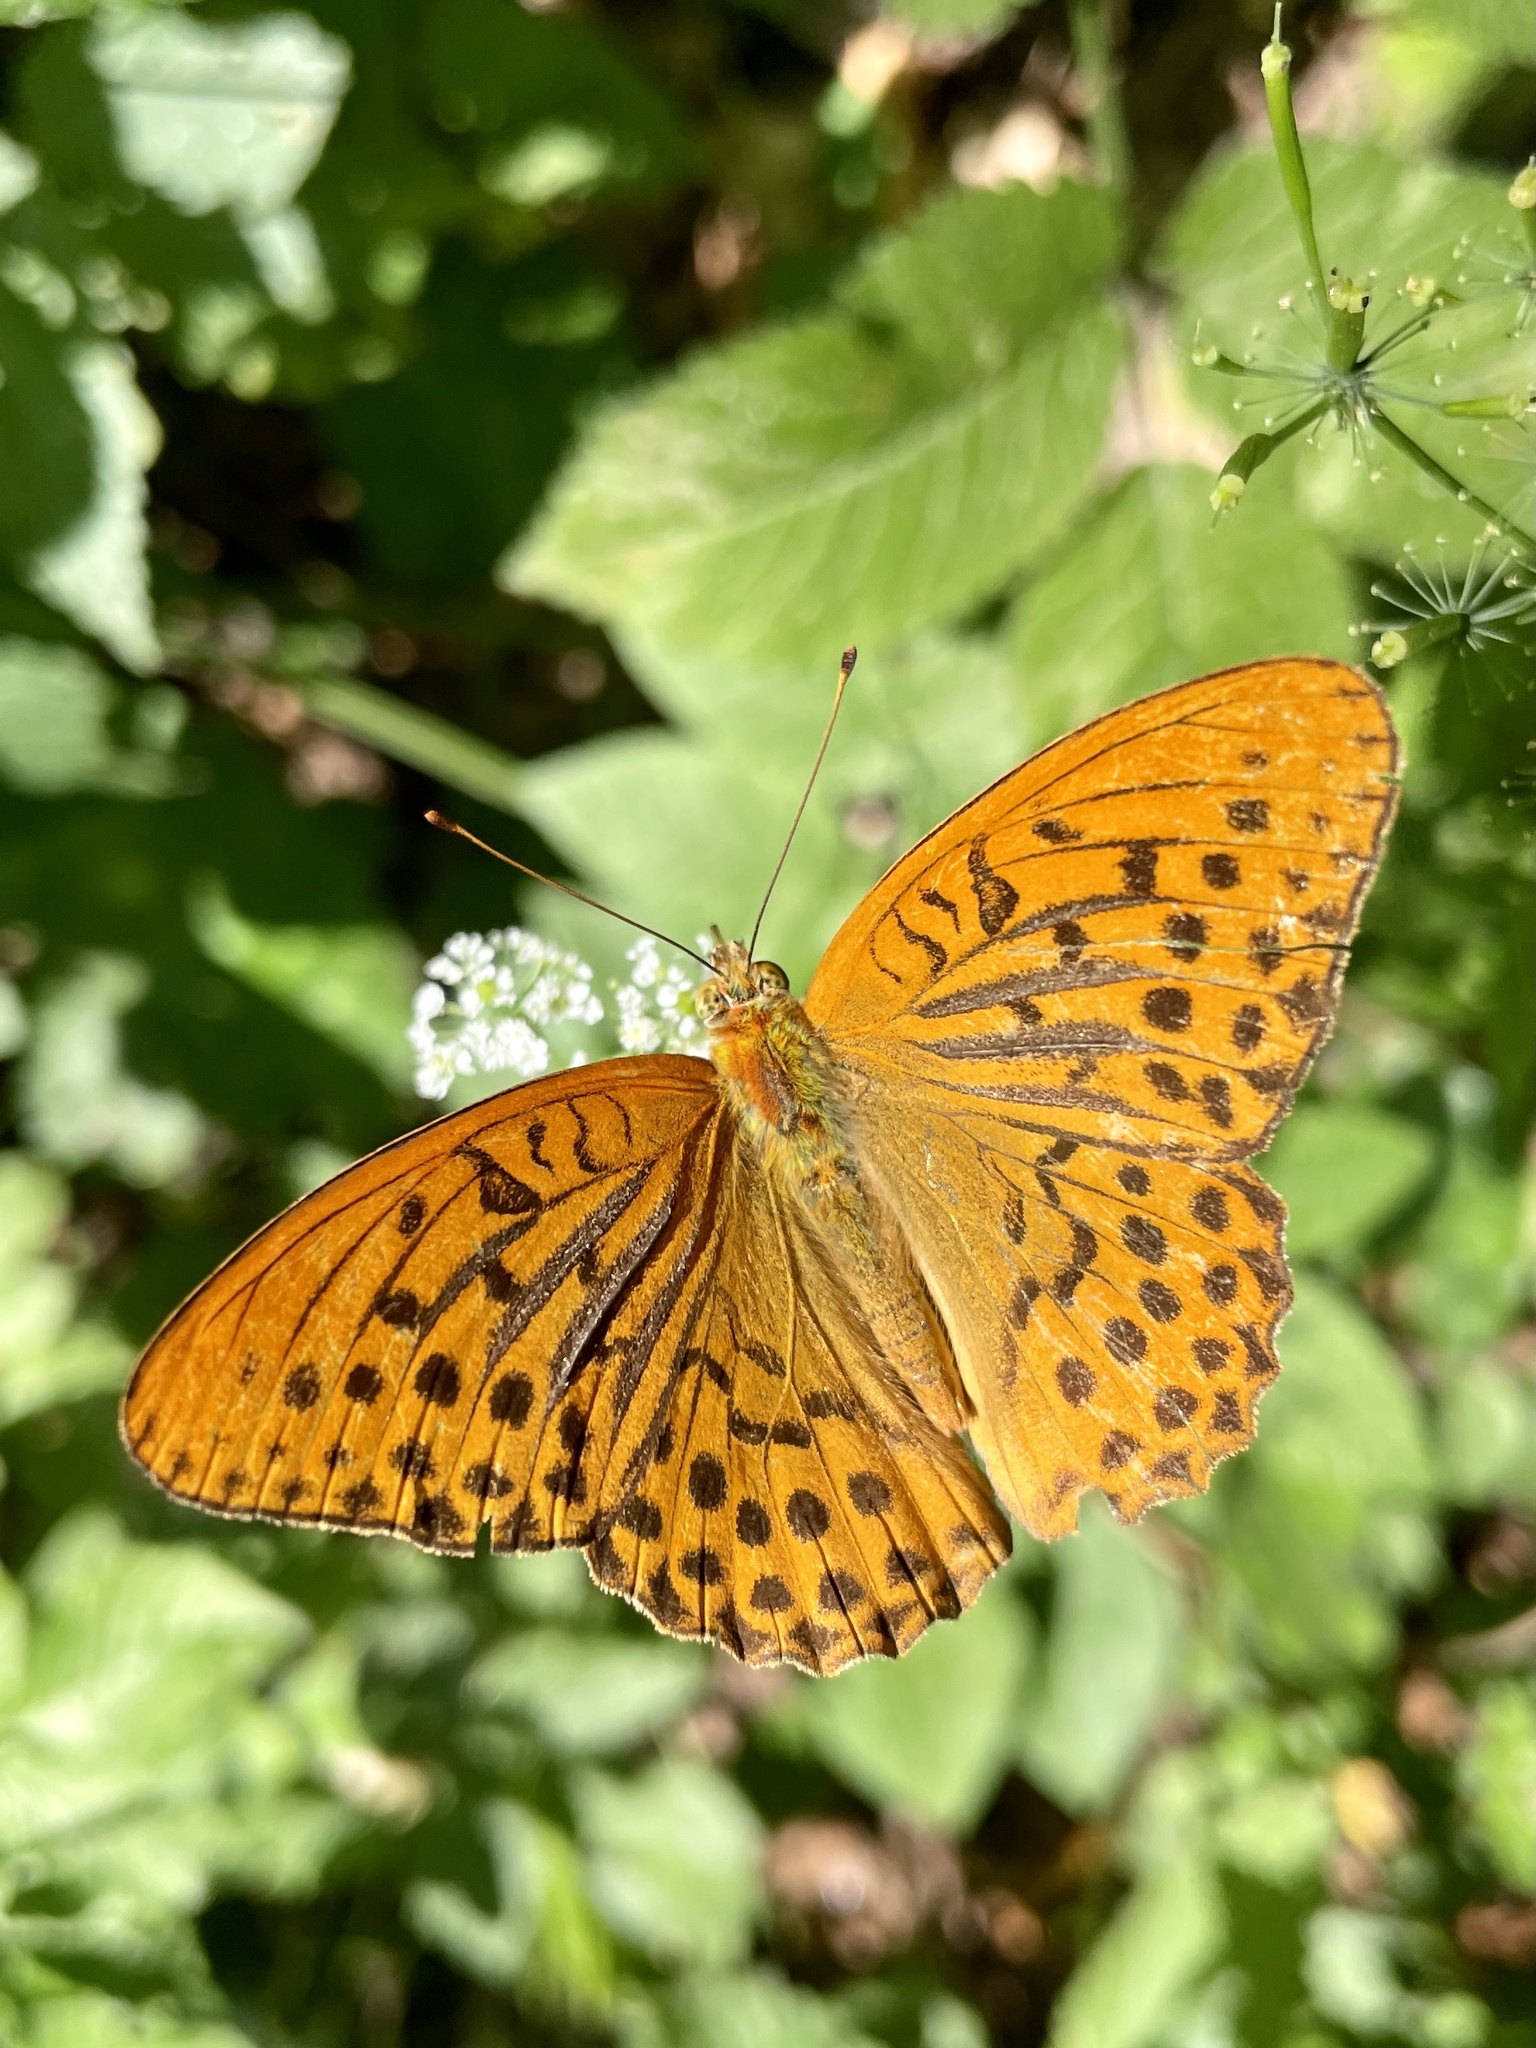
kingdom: Animalia
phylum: Arthropoda
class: Insecta
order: Lepidoptera
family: Nymphalidae
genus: Argynnis
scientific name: Argynnis paphia
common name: Silver-washed fritillary
